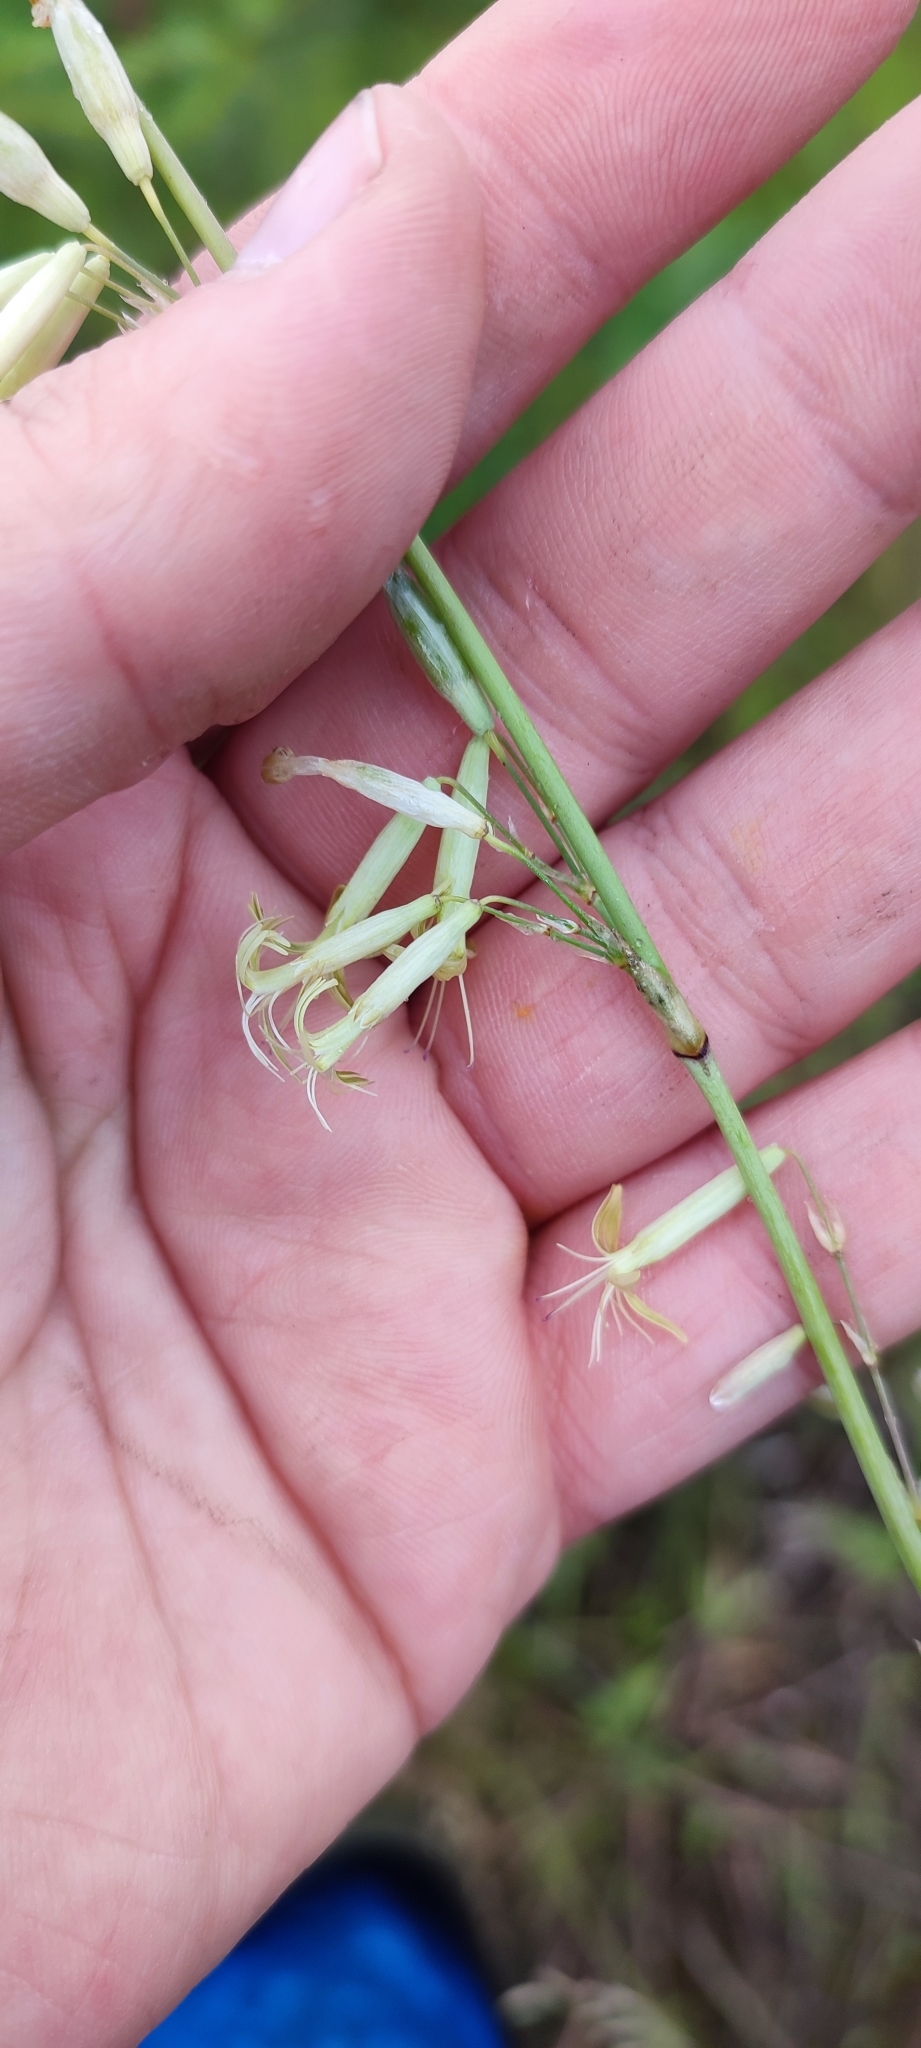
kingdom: Plantae
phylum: Tracheophyta
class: Magnoliopsida
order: Caryophyllales
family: Caryophyllaceae
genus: Silene
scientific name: Silene chlorantha
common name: Yellowgreen catchfly
